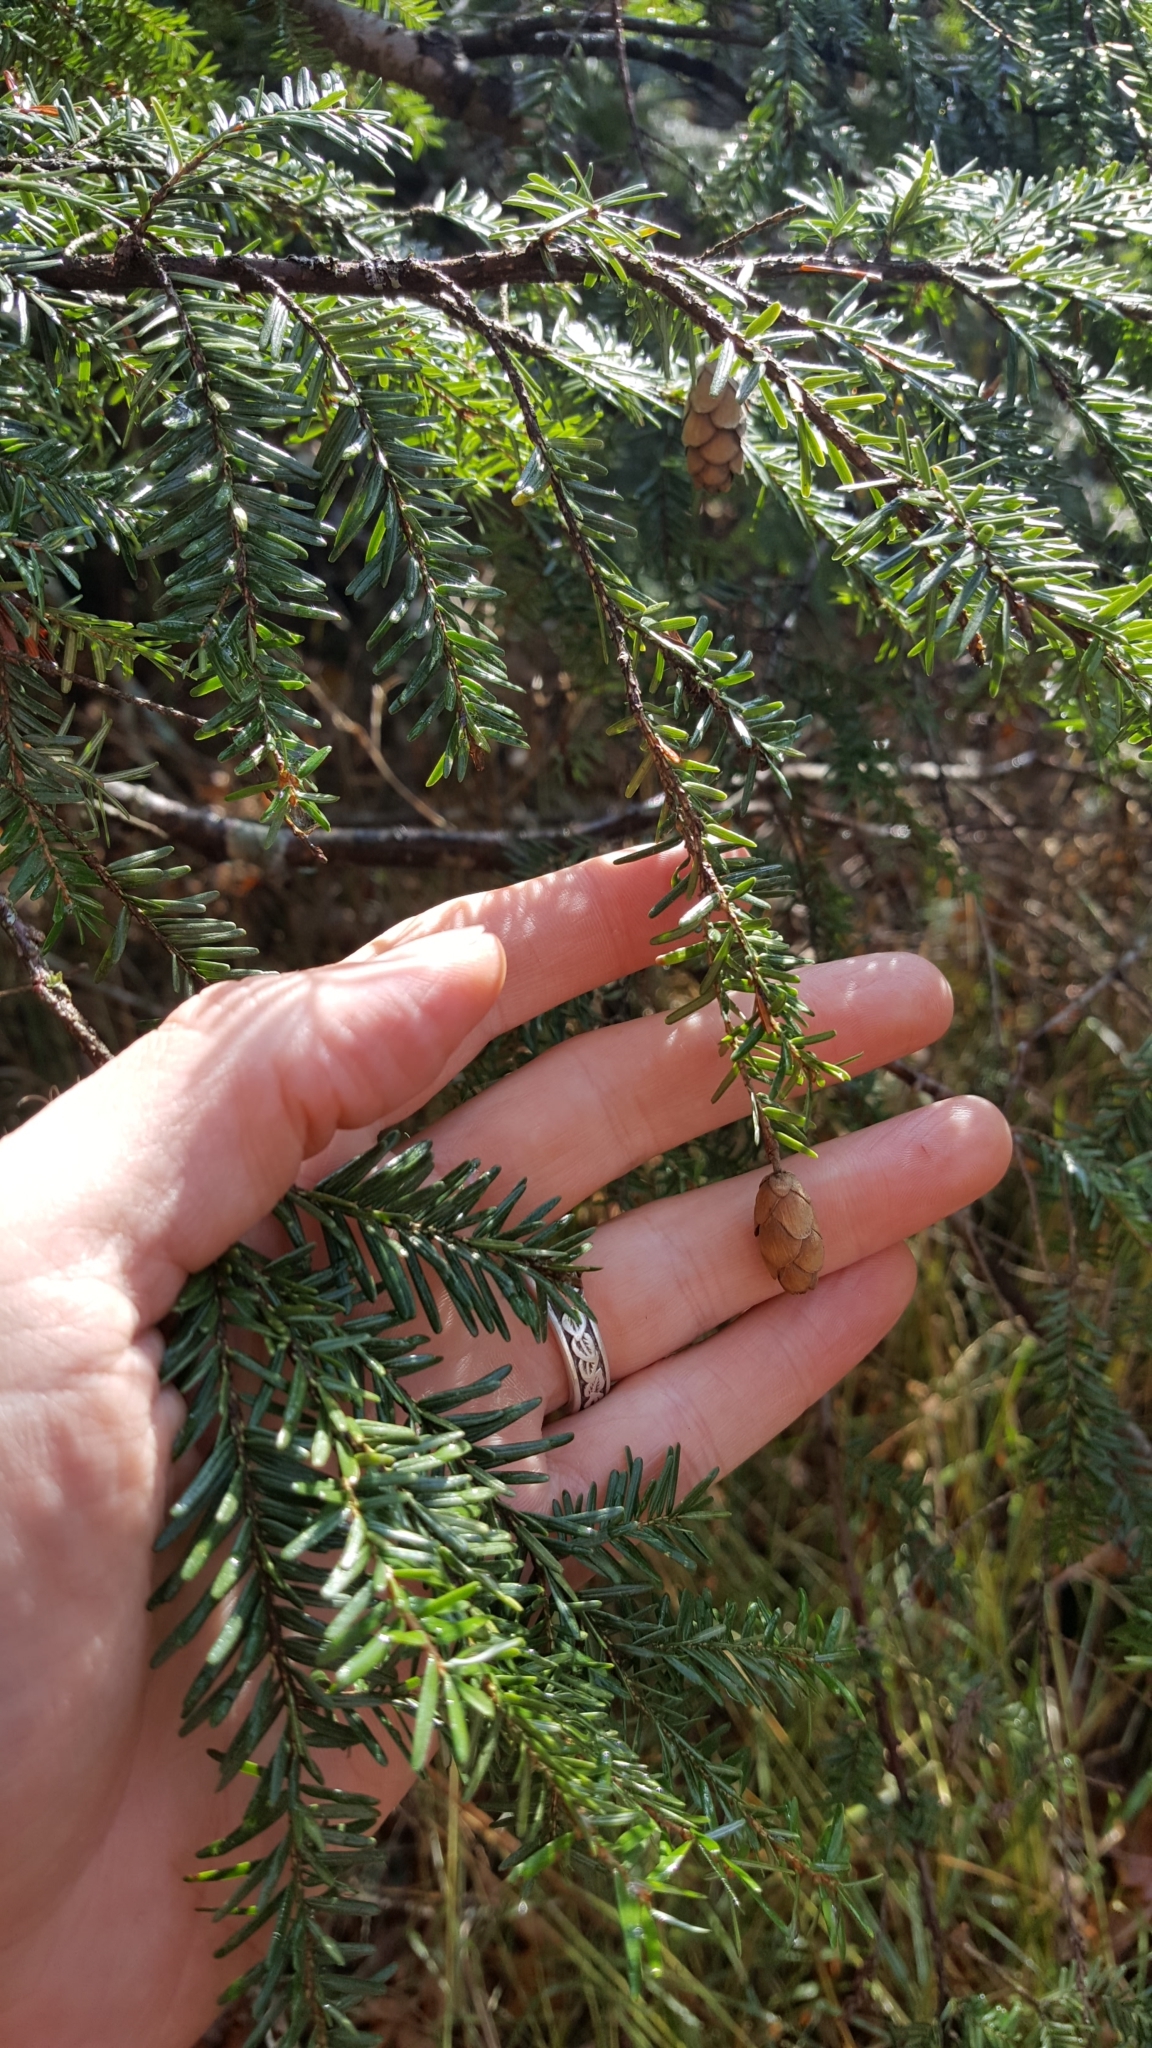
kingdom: Plantae
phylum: Tracheophyta
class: Pinopsida
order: Pinales
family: Pinaceae
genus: Tsuga
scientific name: Tsuga canadensis
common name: Eastern hemlock
